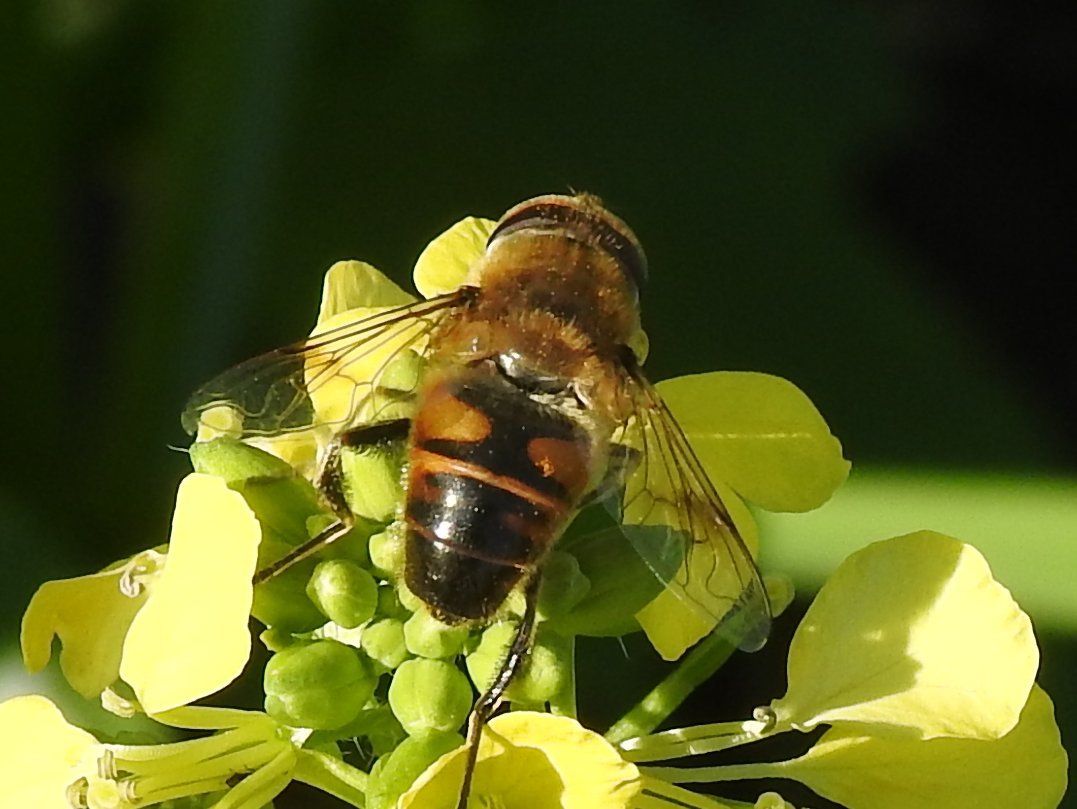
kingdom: Animalia
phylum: Arthropoda
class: Insecta
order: Diptera
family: Syrphidae
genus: Eristalis
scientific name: Eristalis tenax
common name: Drone fly
